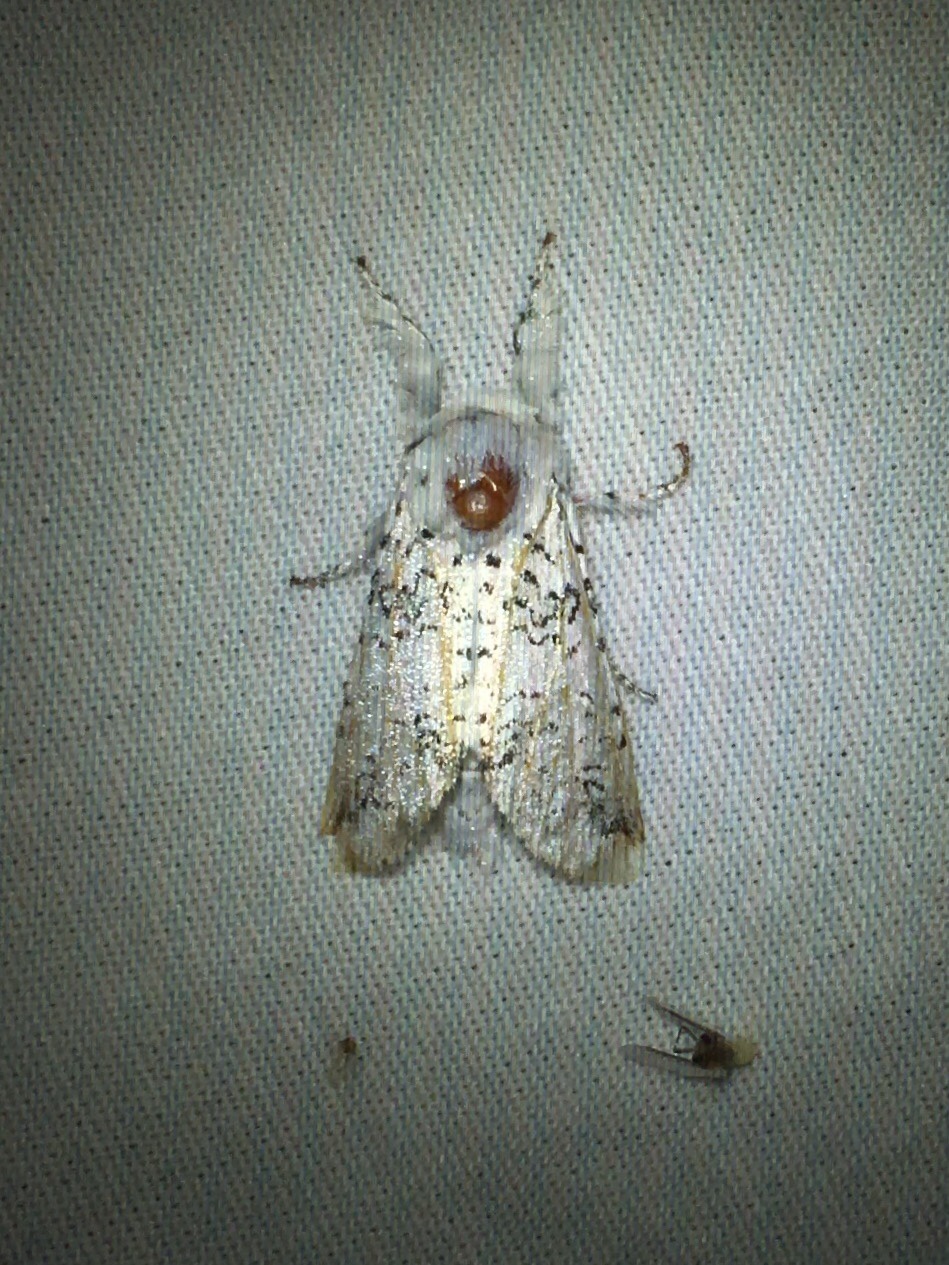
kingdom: Animalia
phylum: Arthropoda
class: Insecta
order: Lepidoptera
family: Notodontidae
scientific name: Notodontidae
